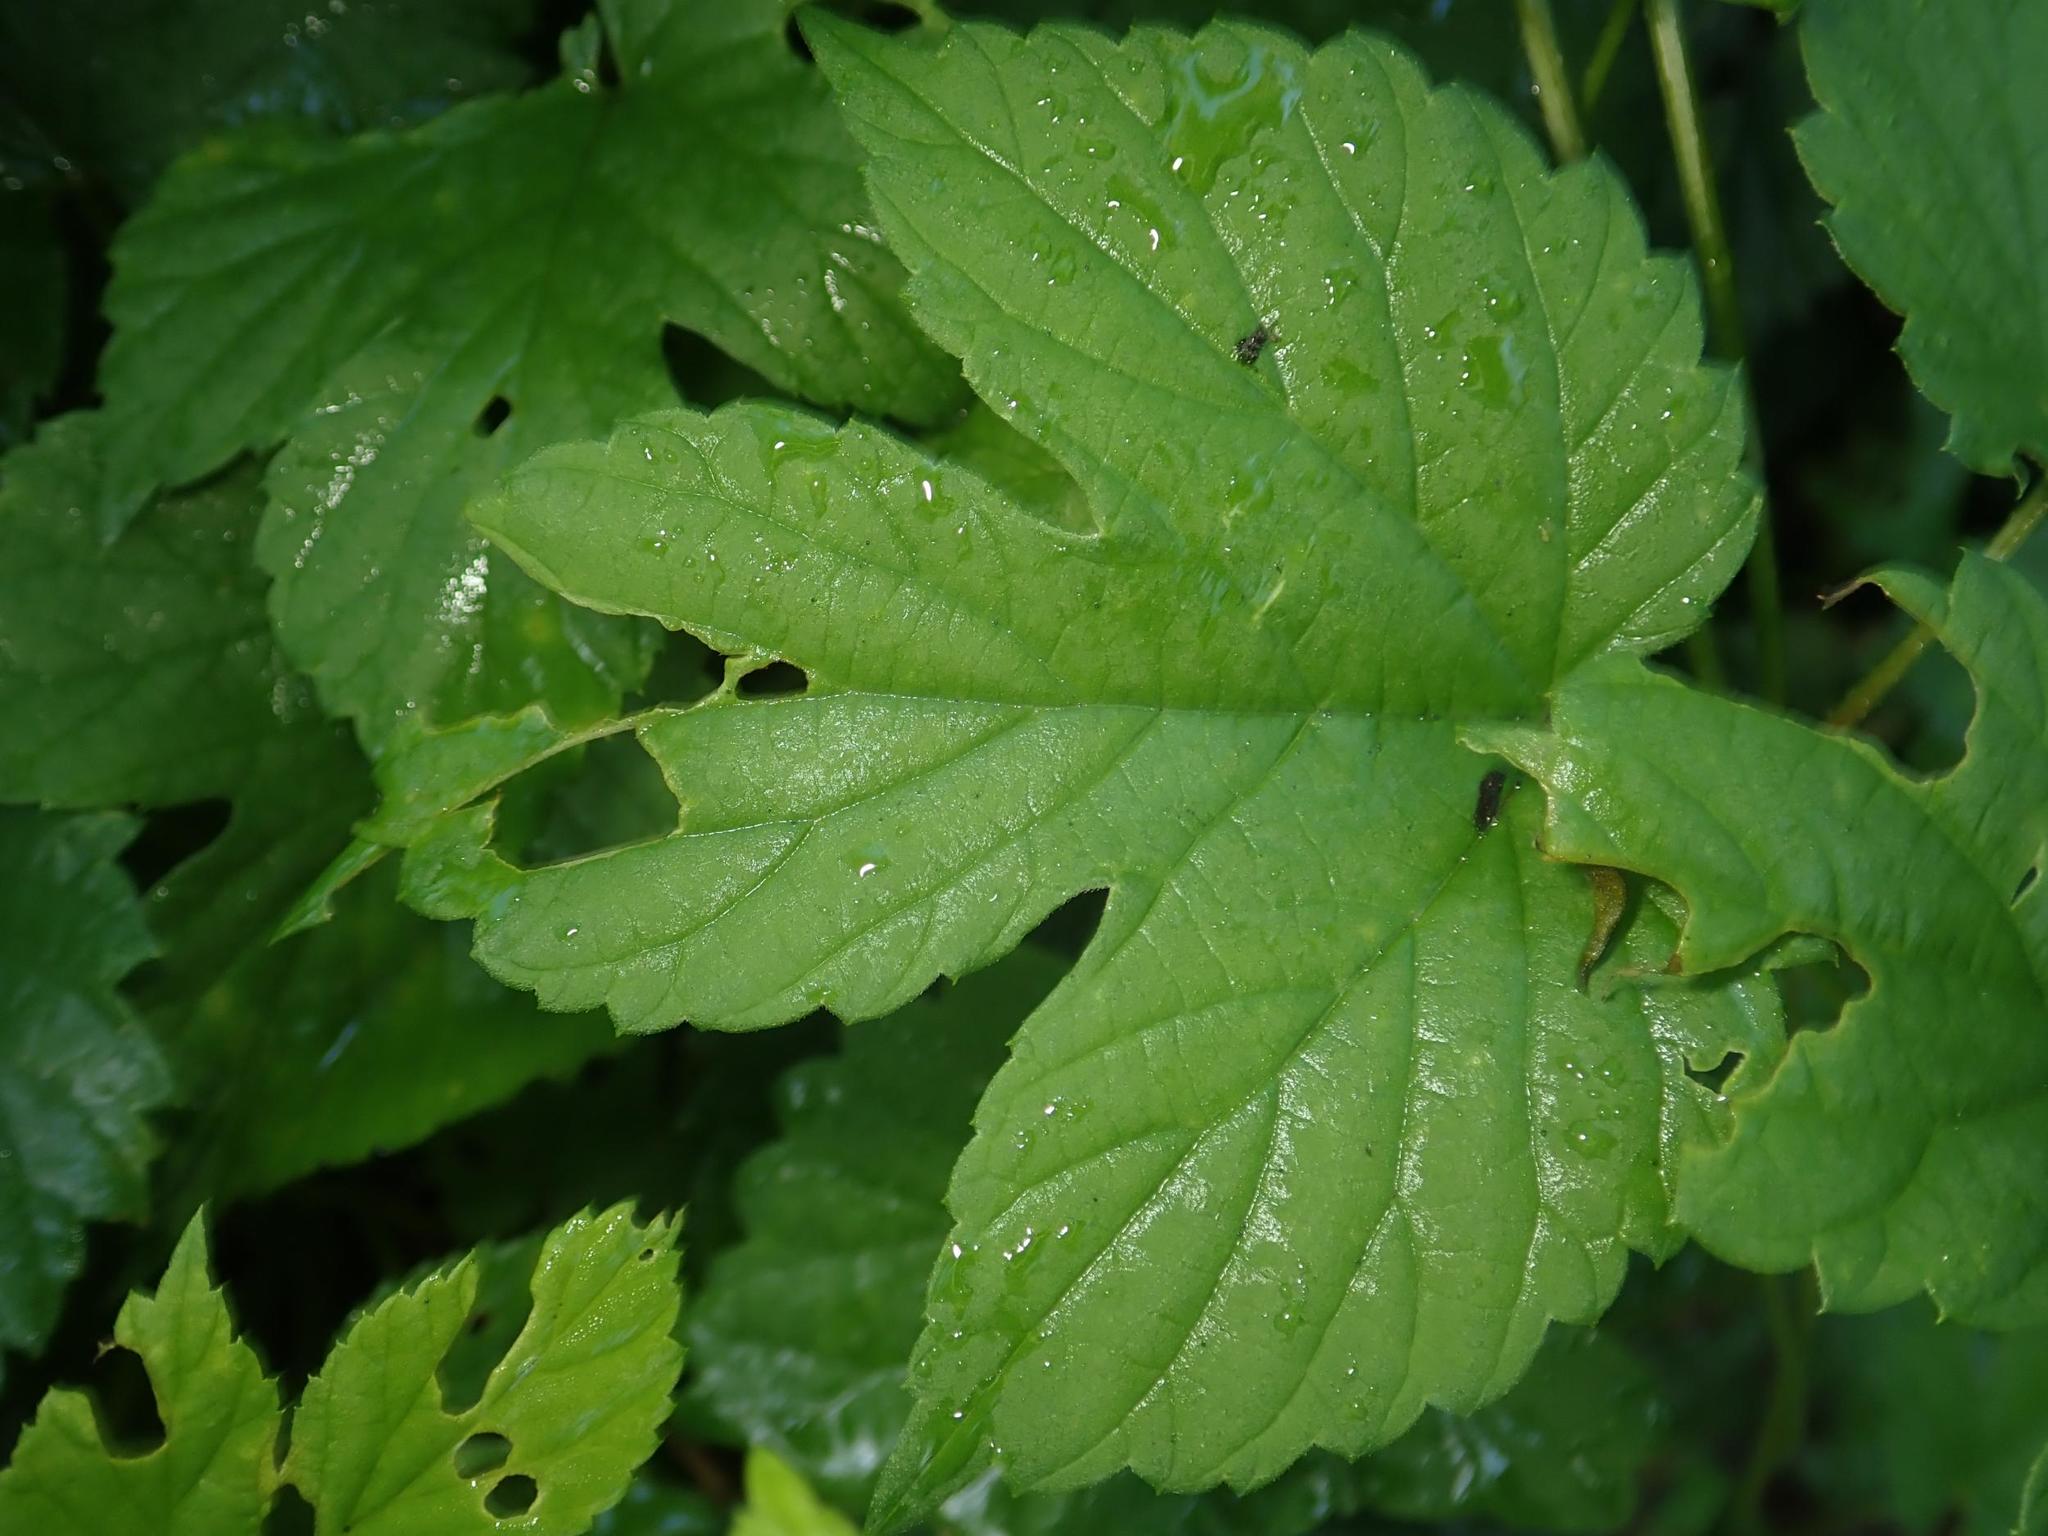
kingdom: Plantae
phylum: Tracheophyta
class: Magnoliopsida
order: Rosales
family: Cannabaceae
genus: Humulus
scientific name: Humulus lupulus
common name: Hop
